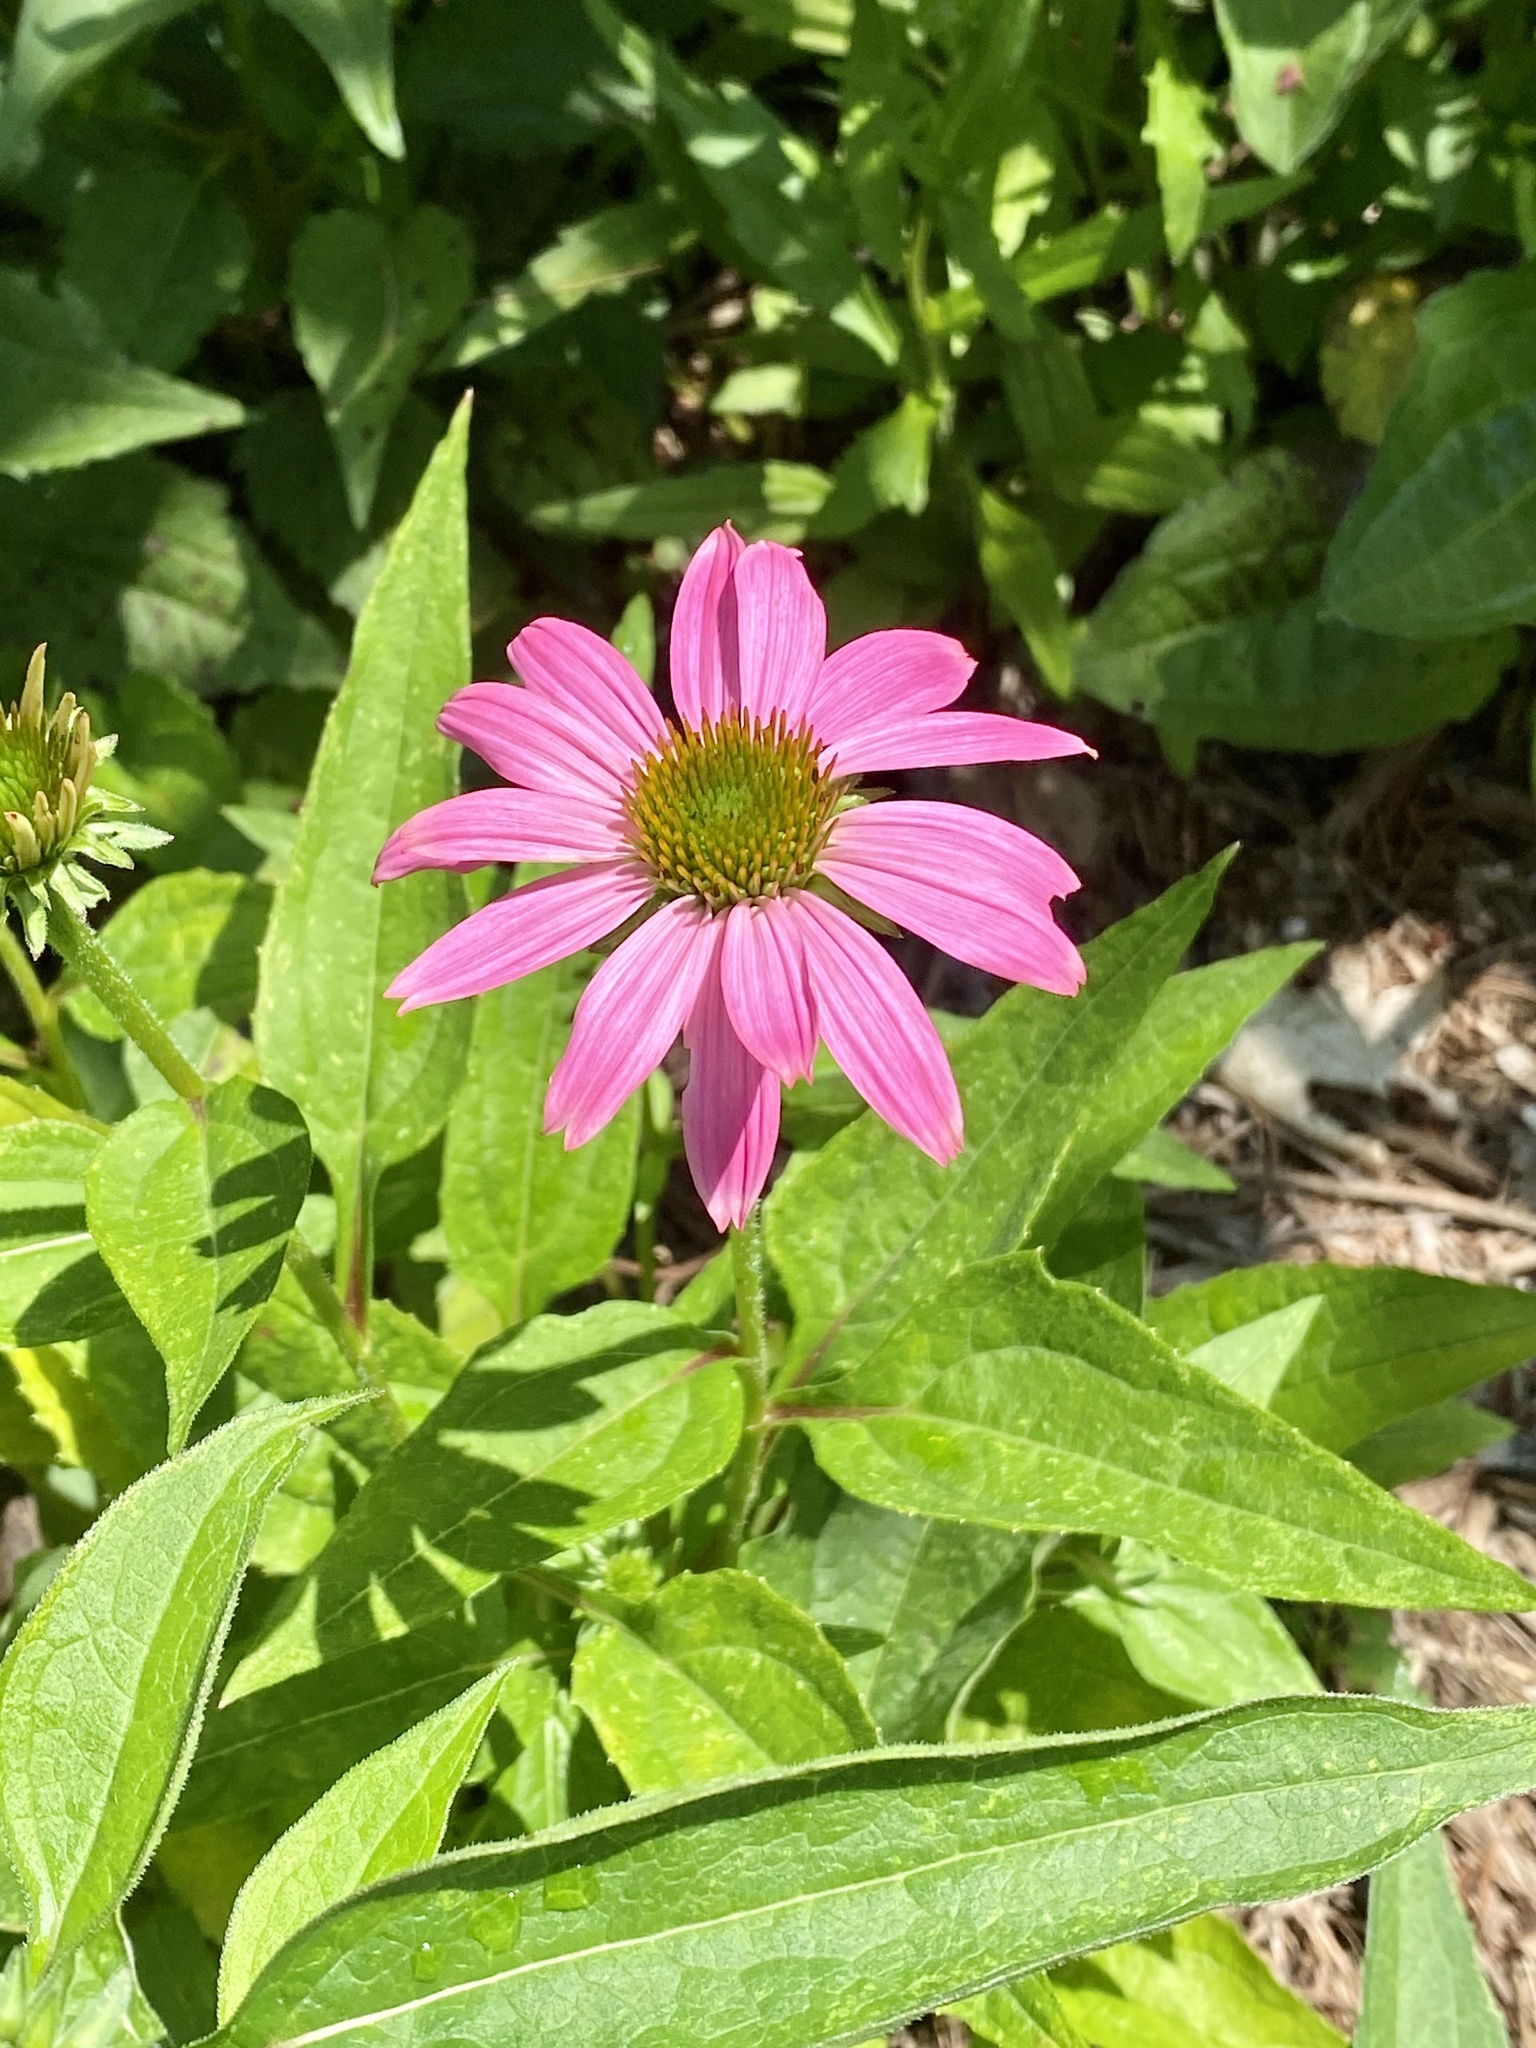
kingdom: Plantae
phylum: Tracheophyta
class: Magnoliopsida
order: Asterales
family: Asteraceae
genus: Echinacea
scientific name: Echinacea purpurea
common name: Broad-leaved purple coneflower
